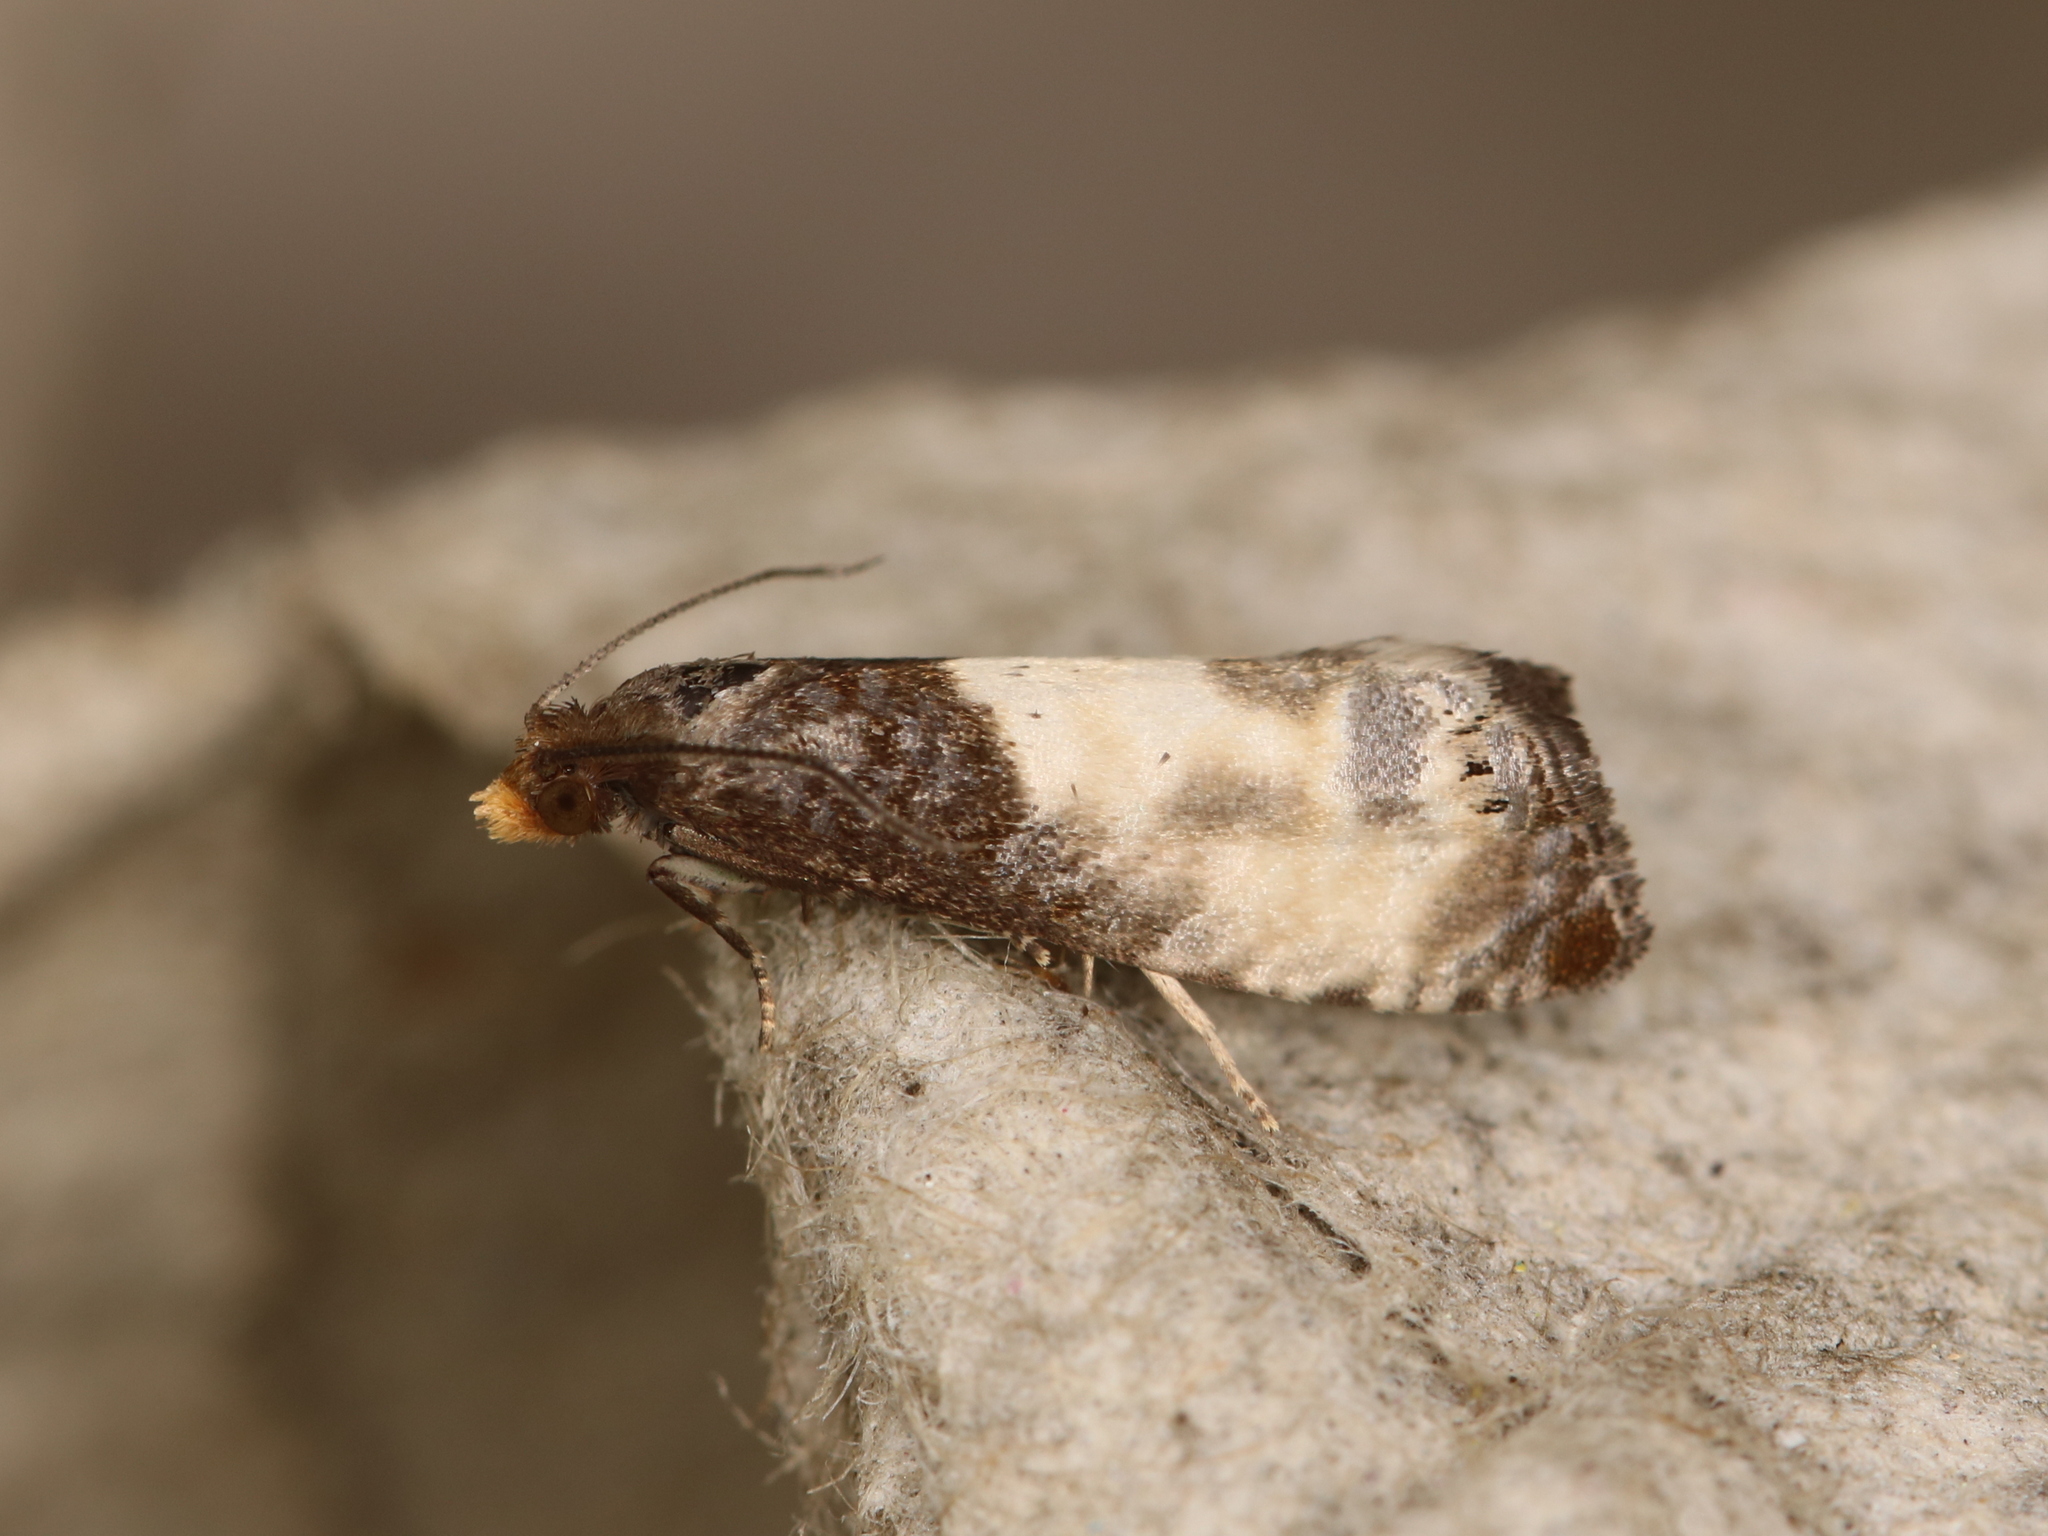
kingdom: Animalia
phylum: Arthropoda
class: Insecta
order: Lepidoptera
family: Tortricidae
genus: Notocelia
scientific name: Notocelia cynosbatella
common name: Yellow-faced bell moth
